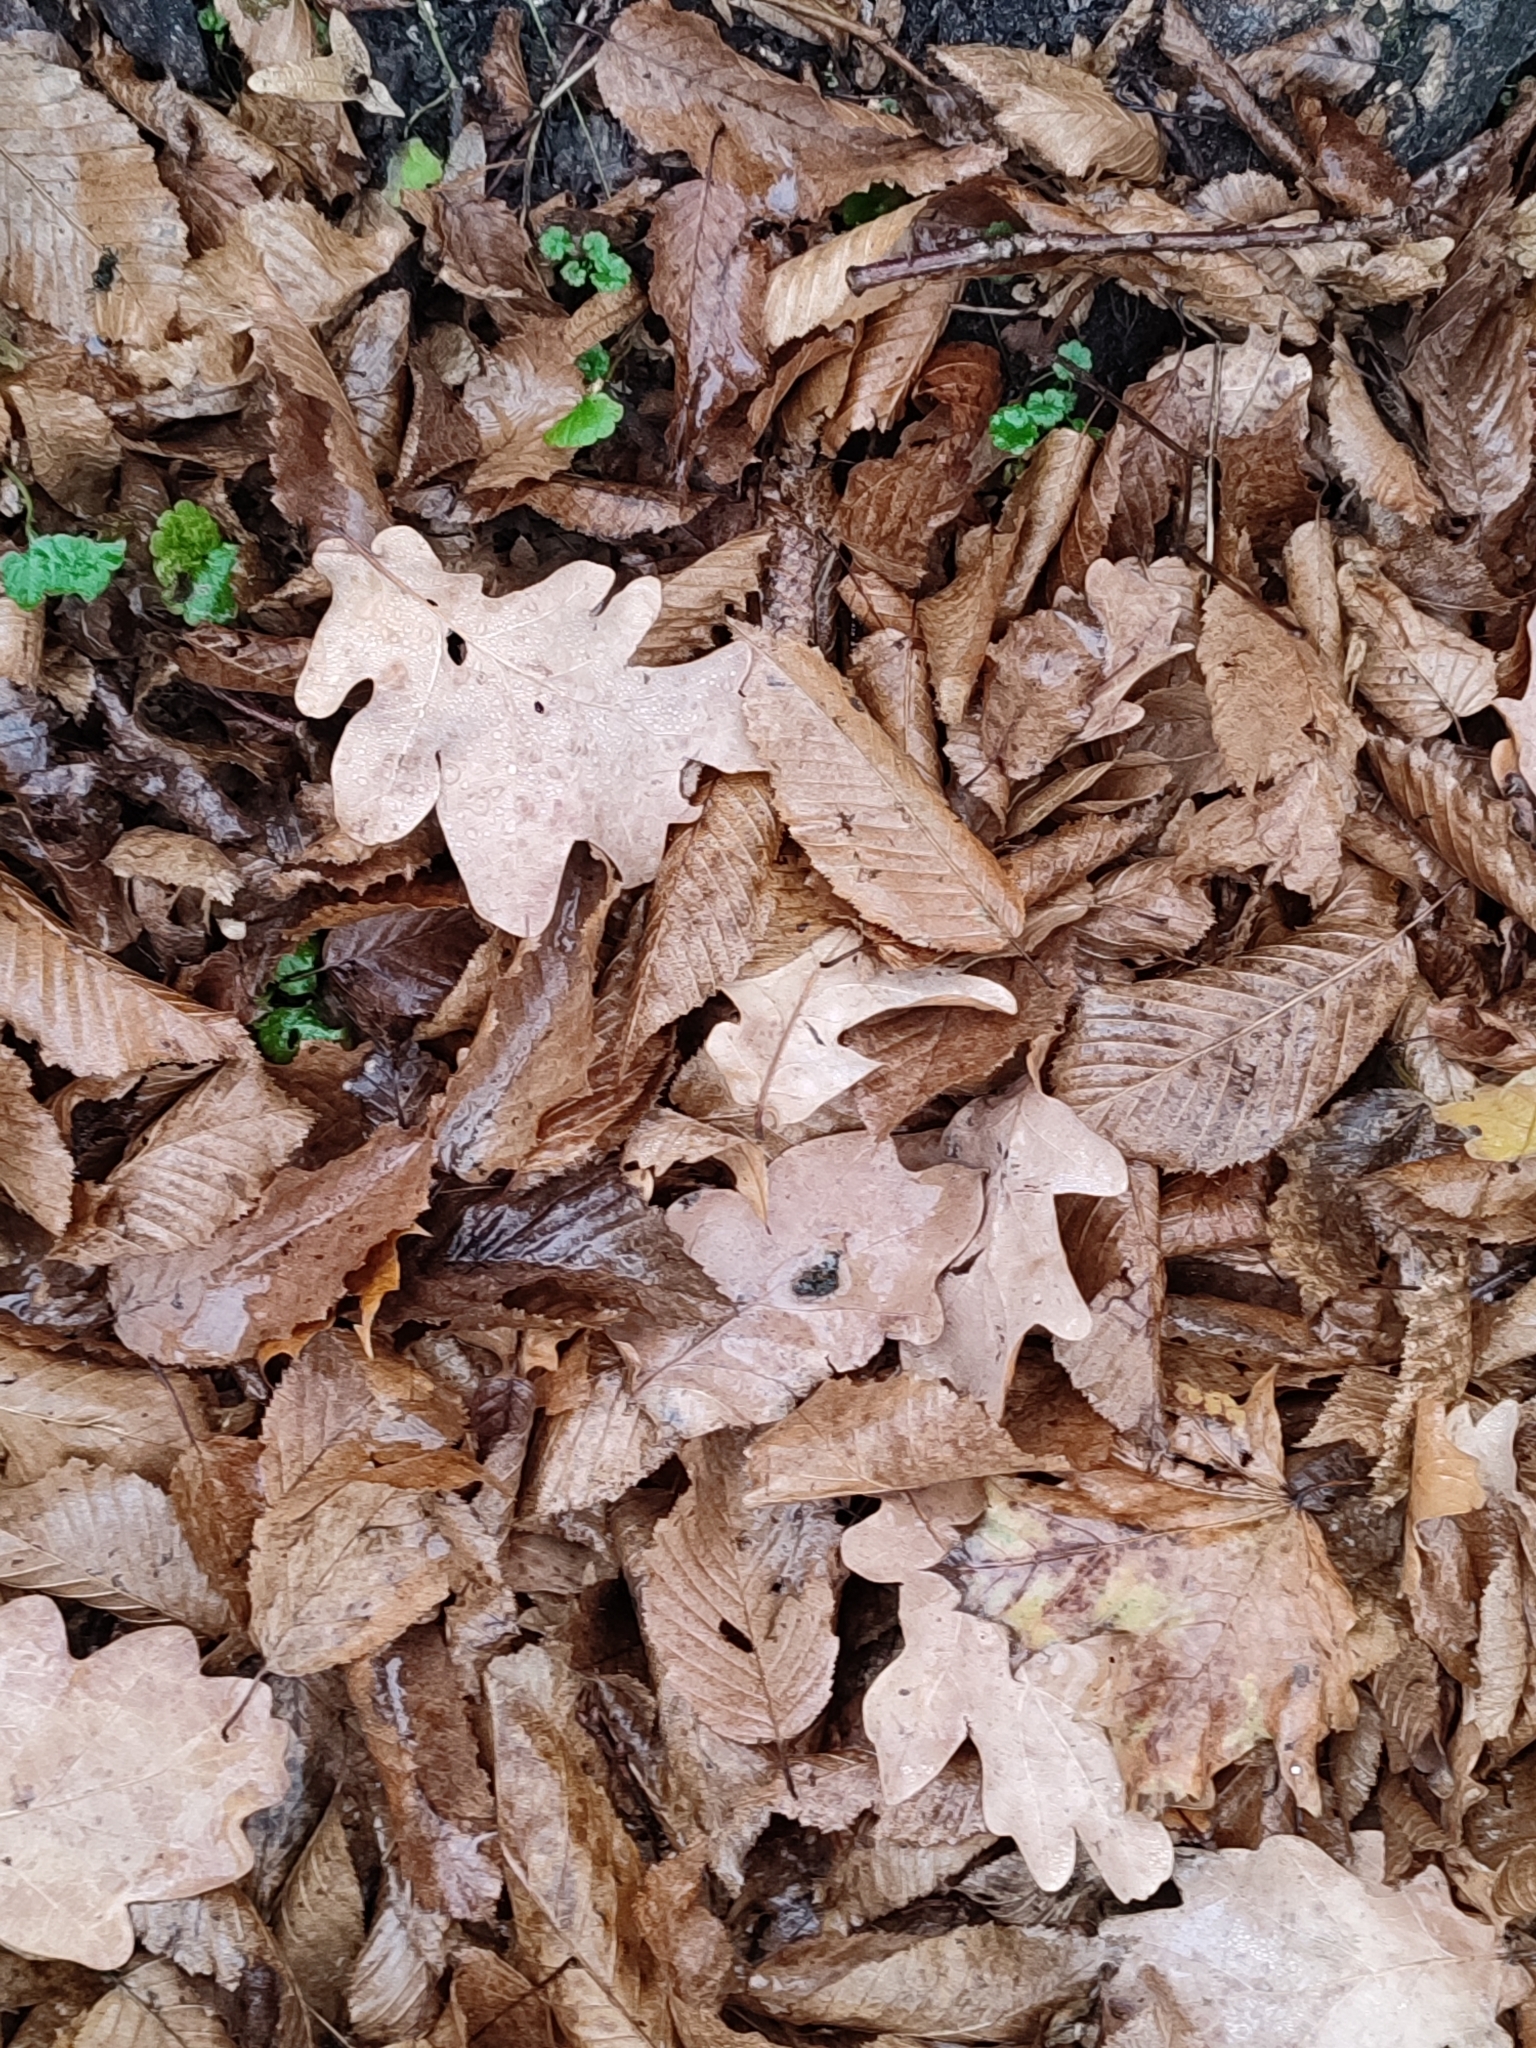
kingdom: Plantae
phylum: Tracheophyta
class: Magnoliopsida
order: Fagales
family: Fagaceae
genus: Quercus
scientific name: Quercus robur
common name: Pedunculate oak
